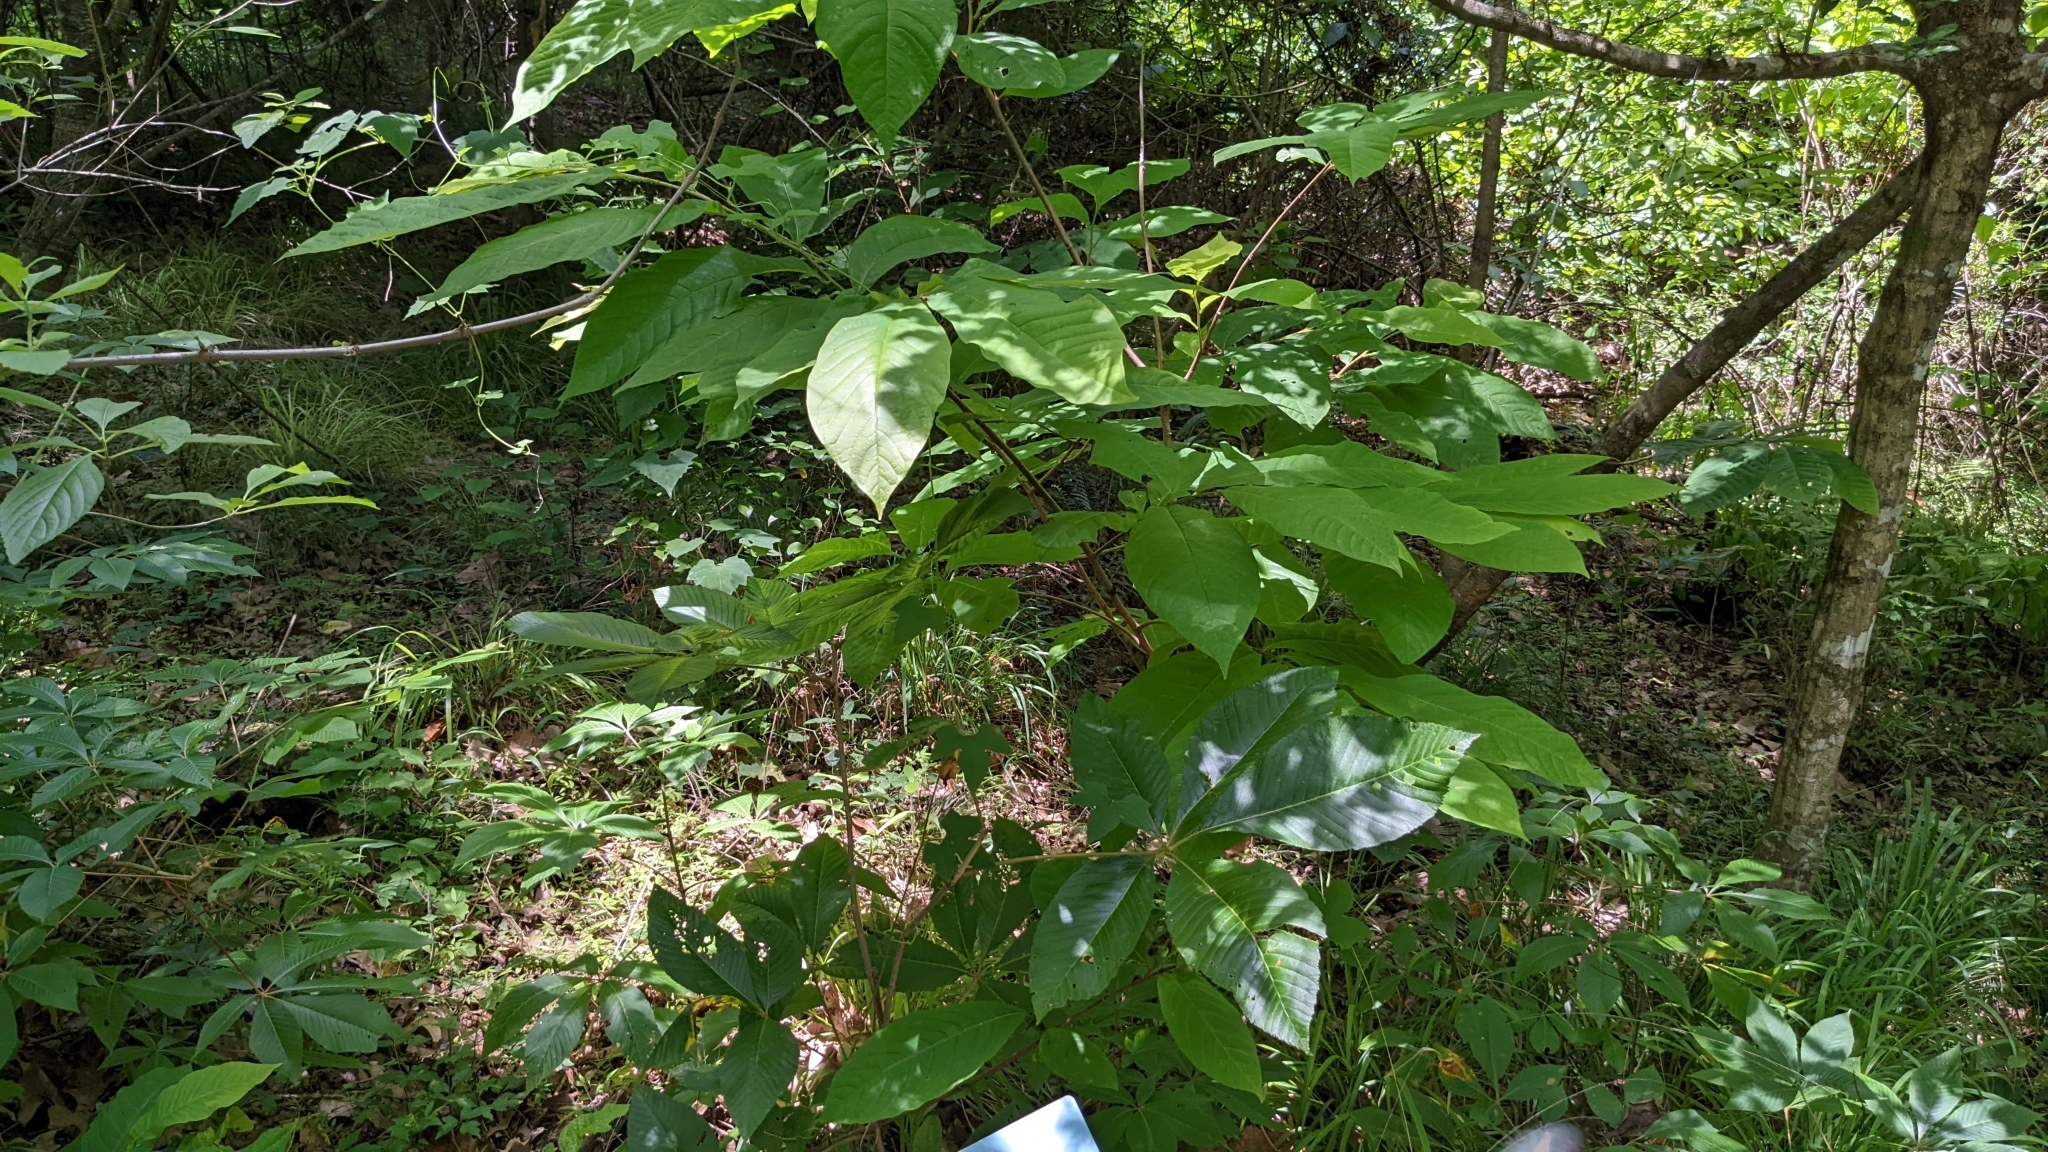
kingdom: Plantae
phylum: Tracheophyta
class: Magnoliopsida
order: Sapindales
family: Sapindaceae
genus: Aesculus
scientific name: Aesculus pavia
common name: Red buckeye
